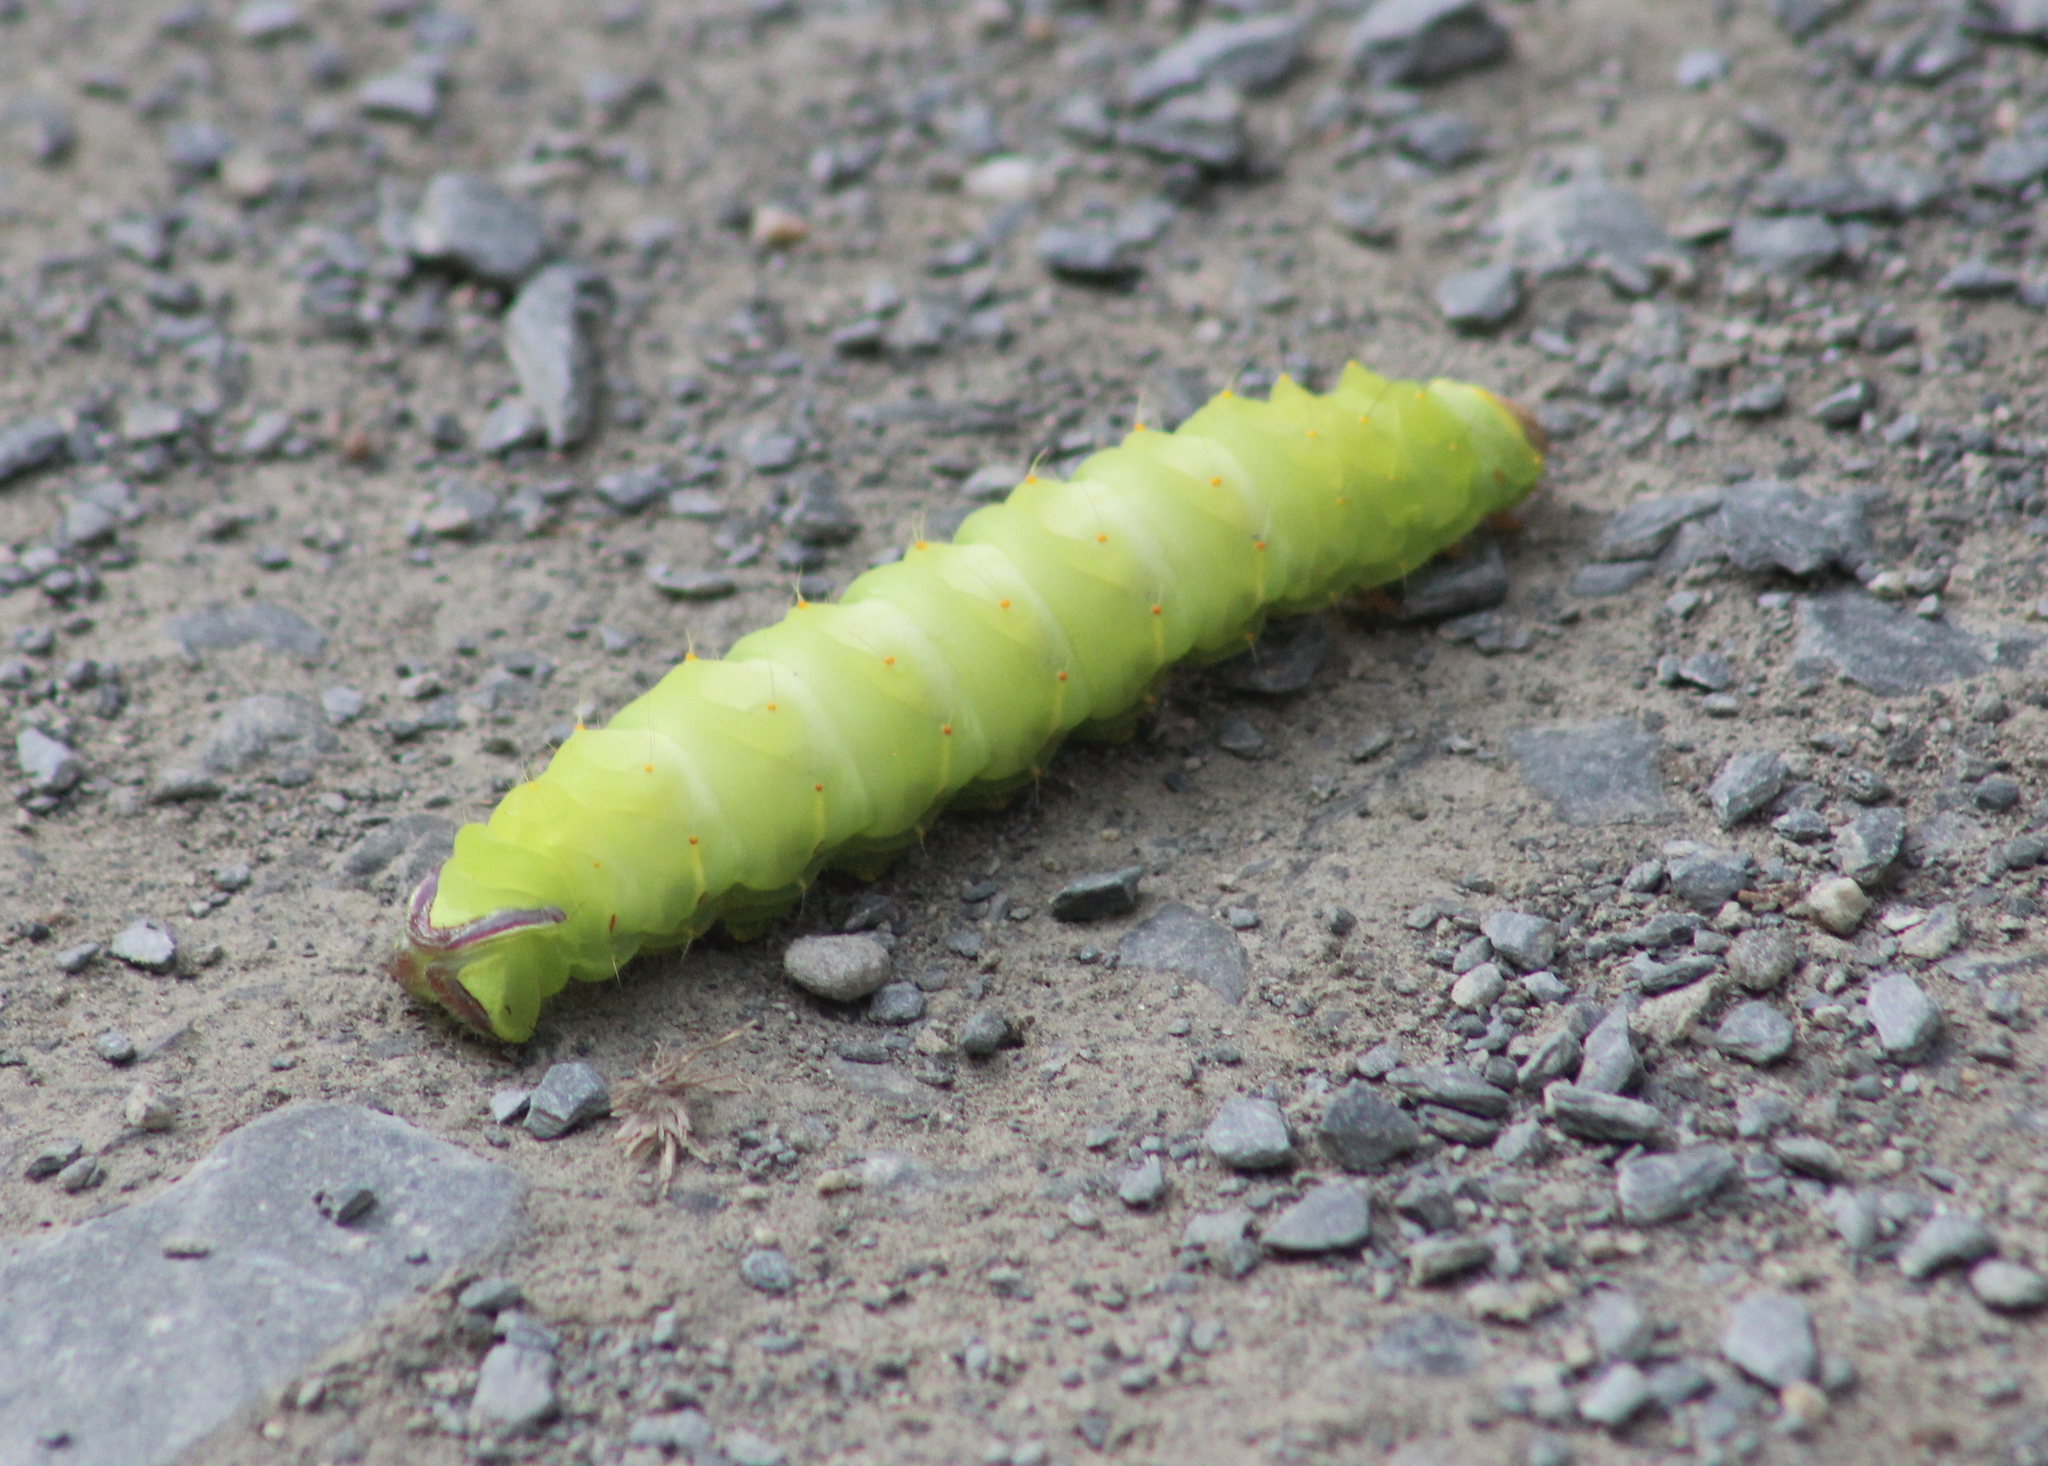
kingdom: Animalia
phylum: Arthropoda
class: Insecta
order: Lepidoptera
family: Saturniidae
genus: Antheraea
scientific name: Antheraea polyphemus
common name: Polyphemus moth
